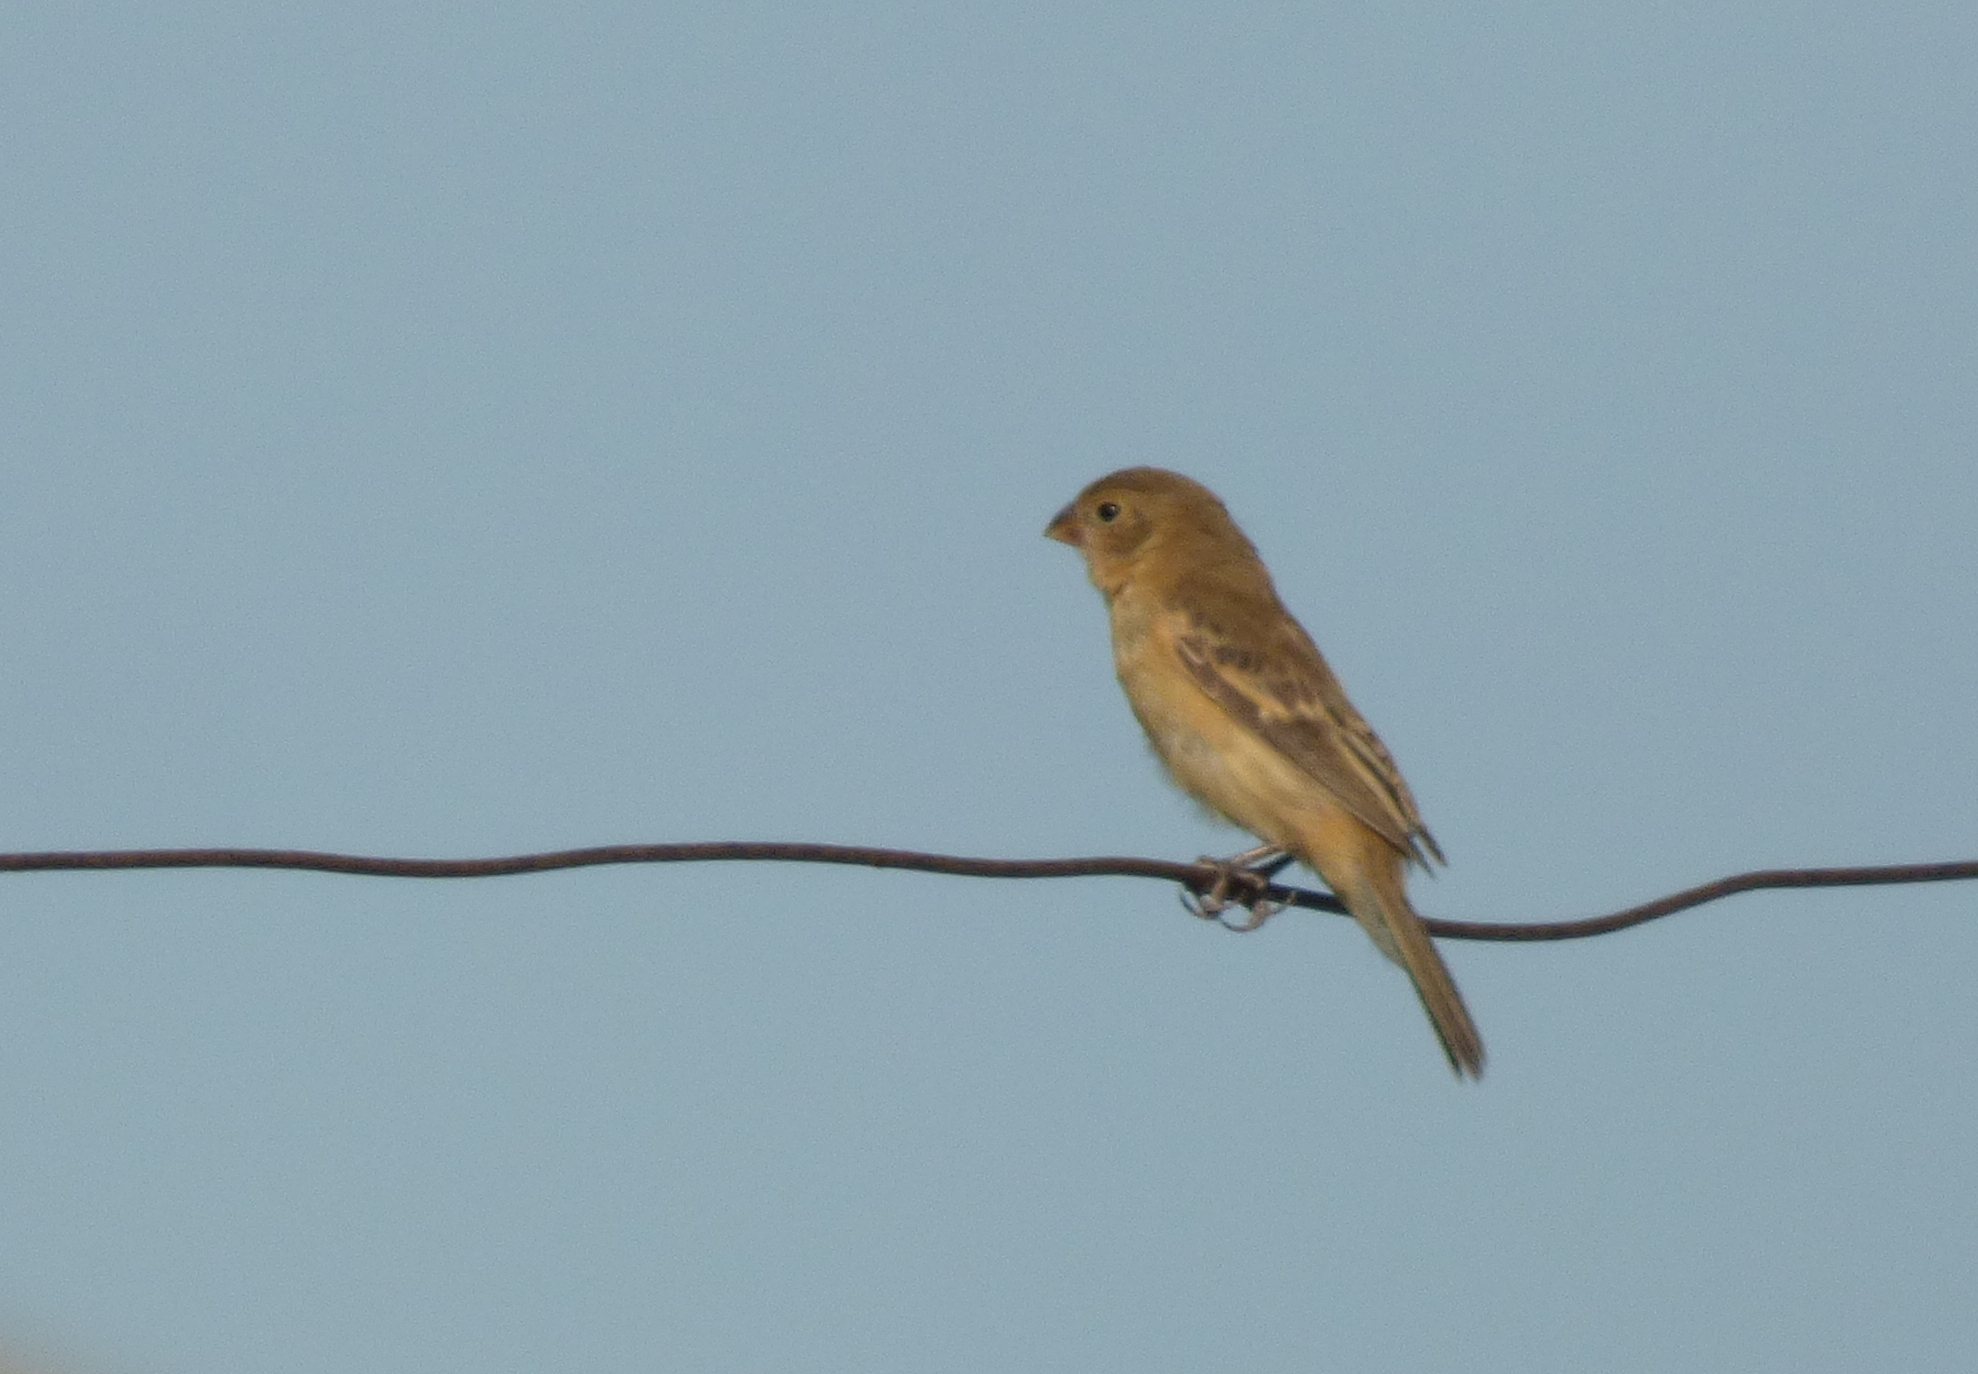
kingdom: Animalia
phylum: Chordata
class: Aves
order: Passeriformes
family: Thraupidae
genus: Sporophila
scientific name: Sporophila ruficollis
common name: Dark-throated seedeater
